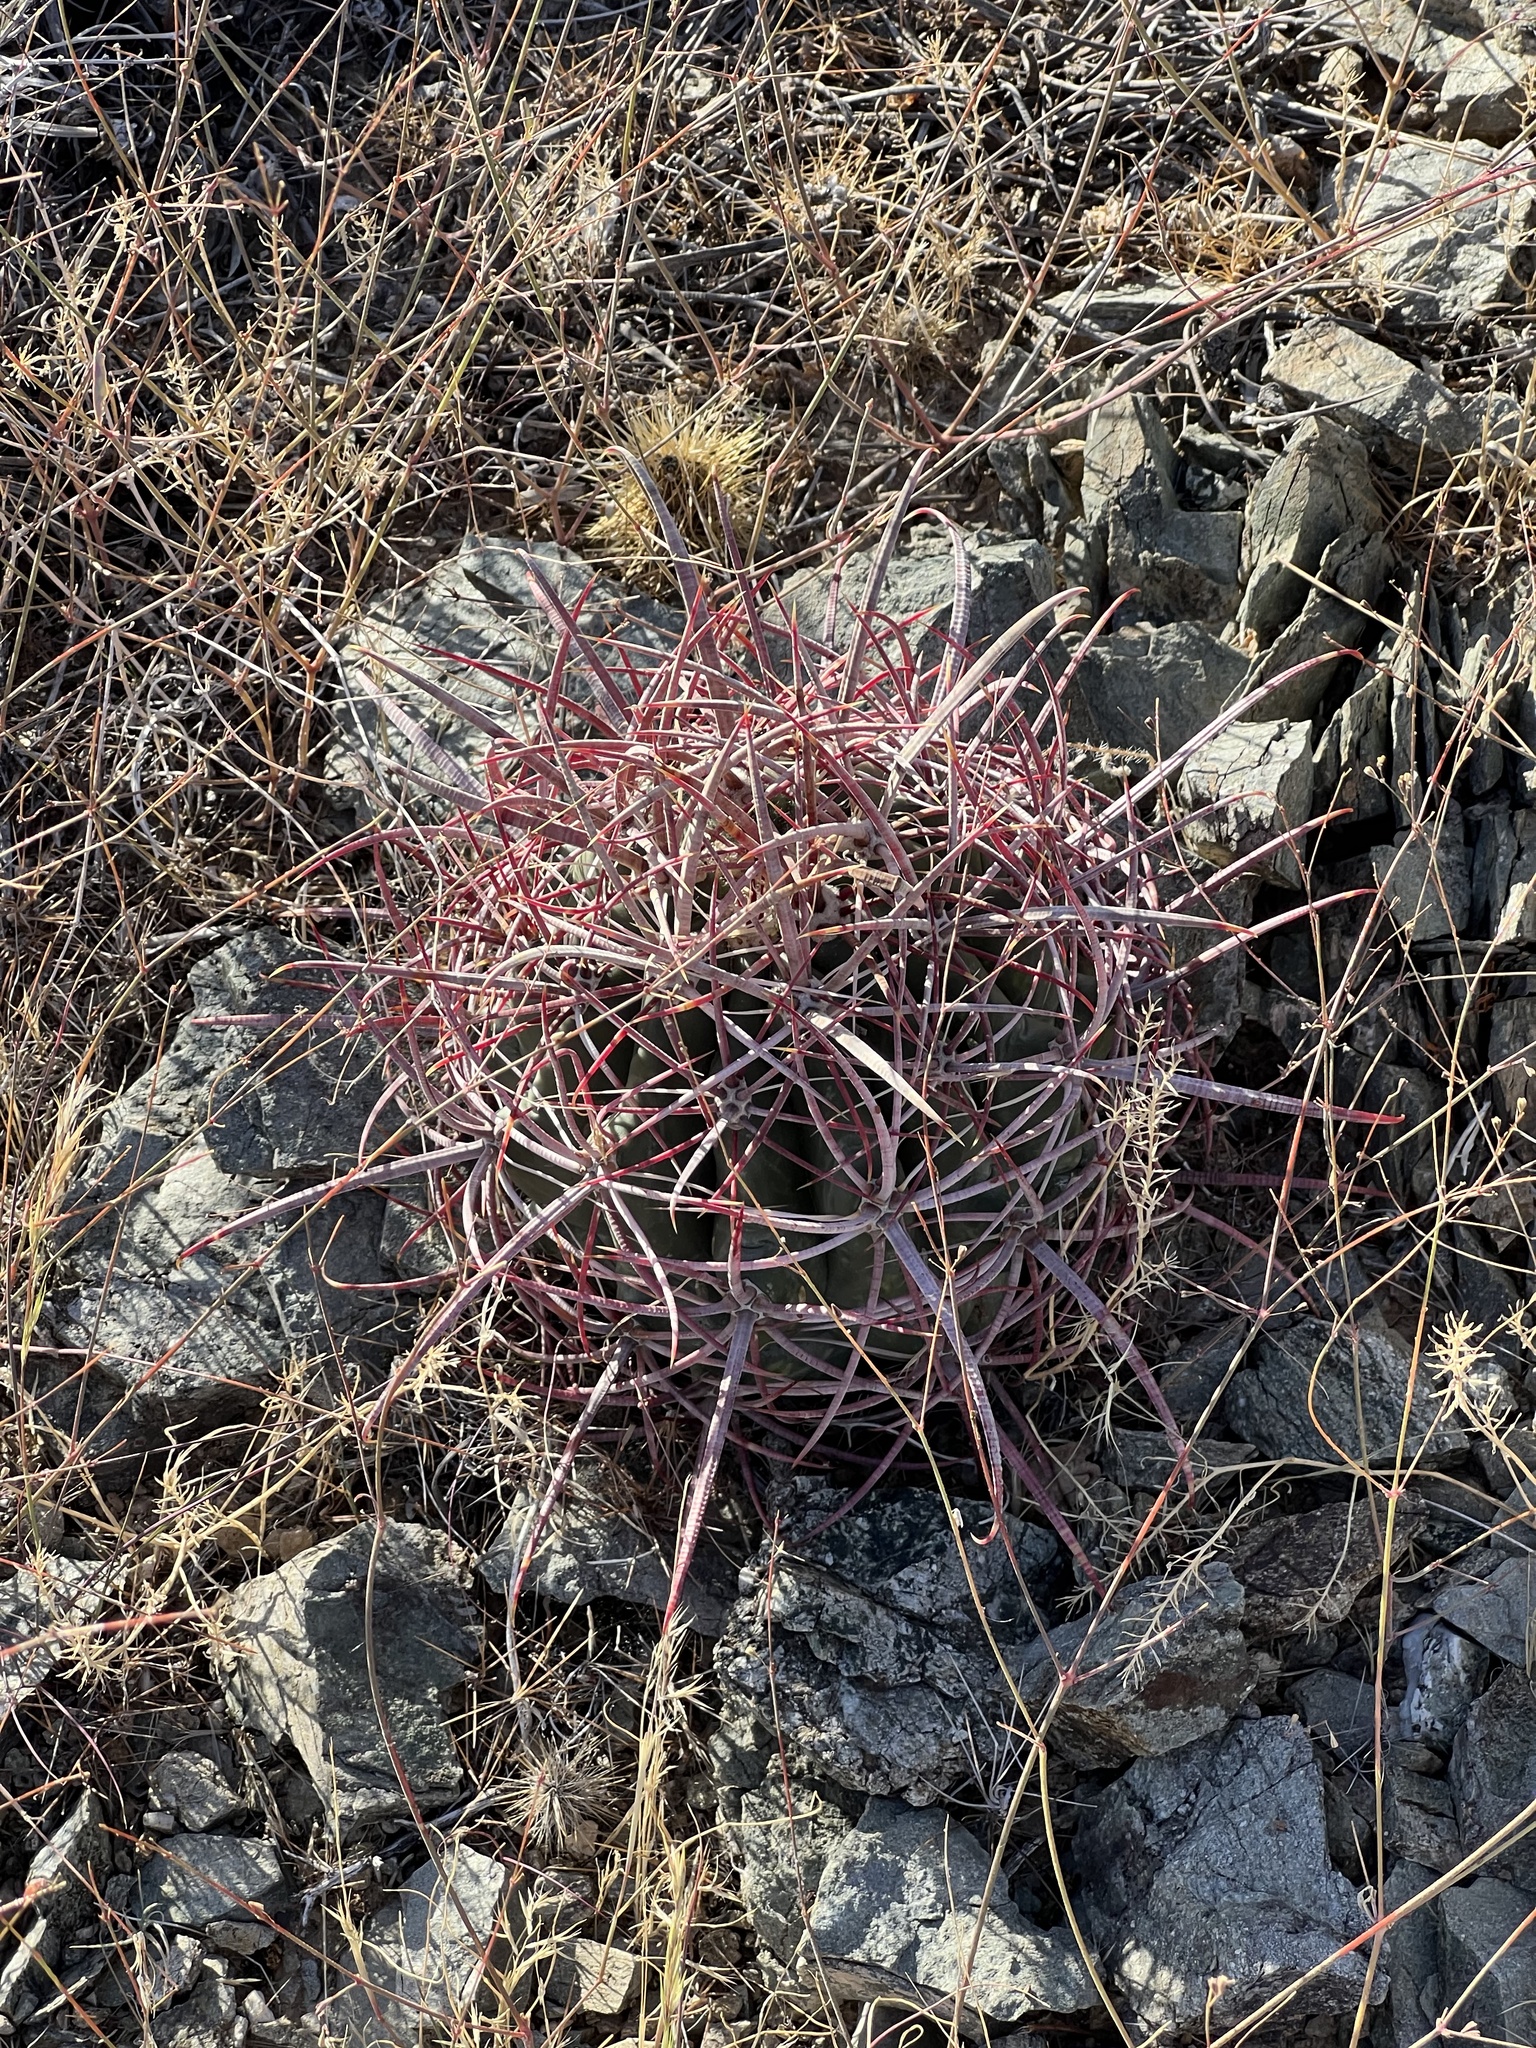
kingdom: Plantae
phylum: Tracheophyta
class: Magnoliopsida
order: Caryophyllales
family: Cactaceae
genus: Ferocactus
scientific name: Ferocactus cylindraceus
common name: California barrel cactus
